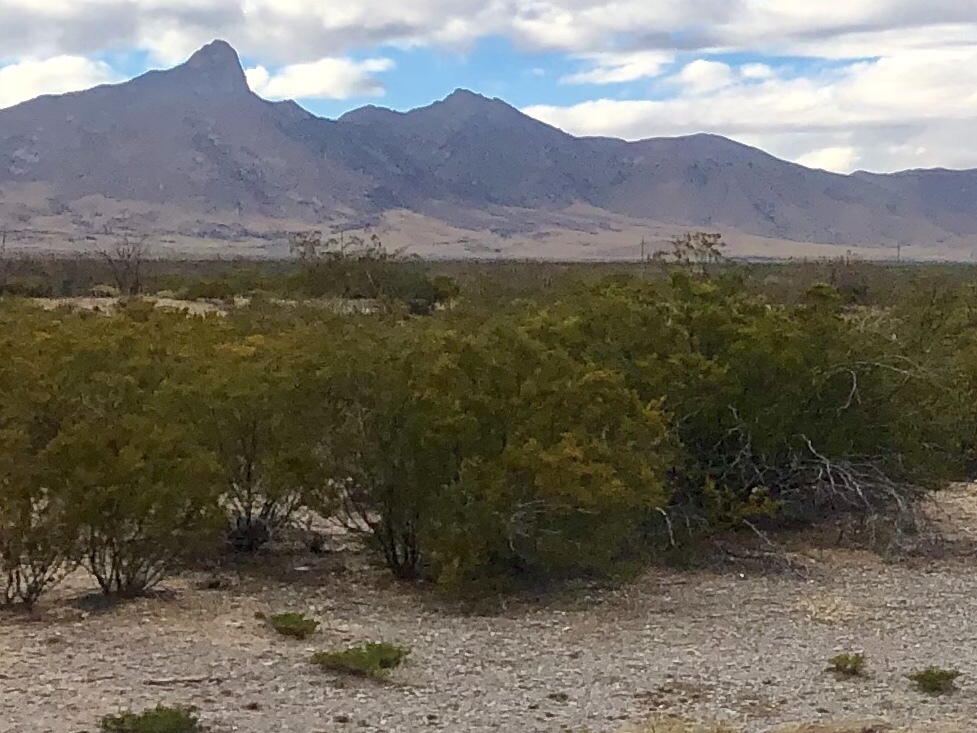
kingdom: Plantae
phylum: Tracheophyta
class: Magnoliopsida
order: Zygophyllales
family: Zygophyllaceae
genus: Larrea
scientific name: Larrea tridentata
